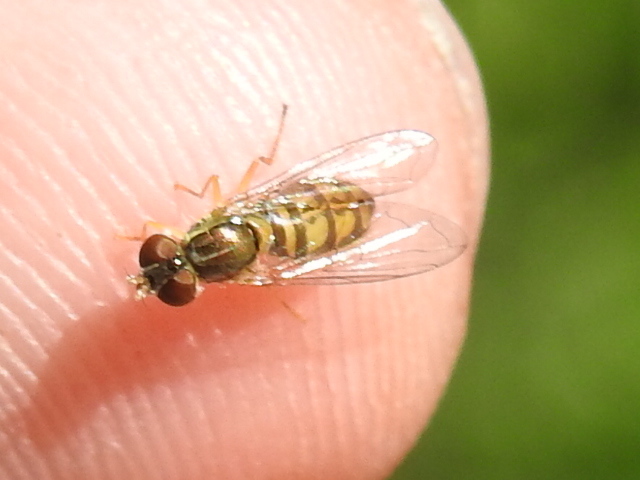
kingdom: Animalia
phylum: Arthropoda
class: Insecta
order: Diptera
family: Syrphidae
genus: Toxomerus
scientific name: Toxomerus marginatus
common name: Syrphid fly
